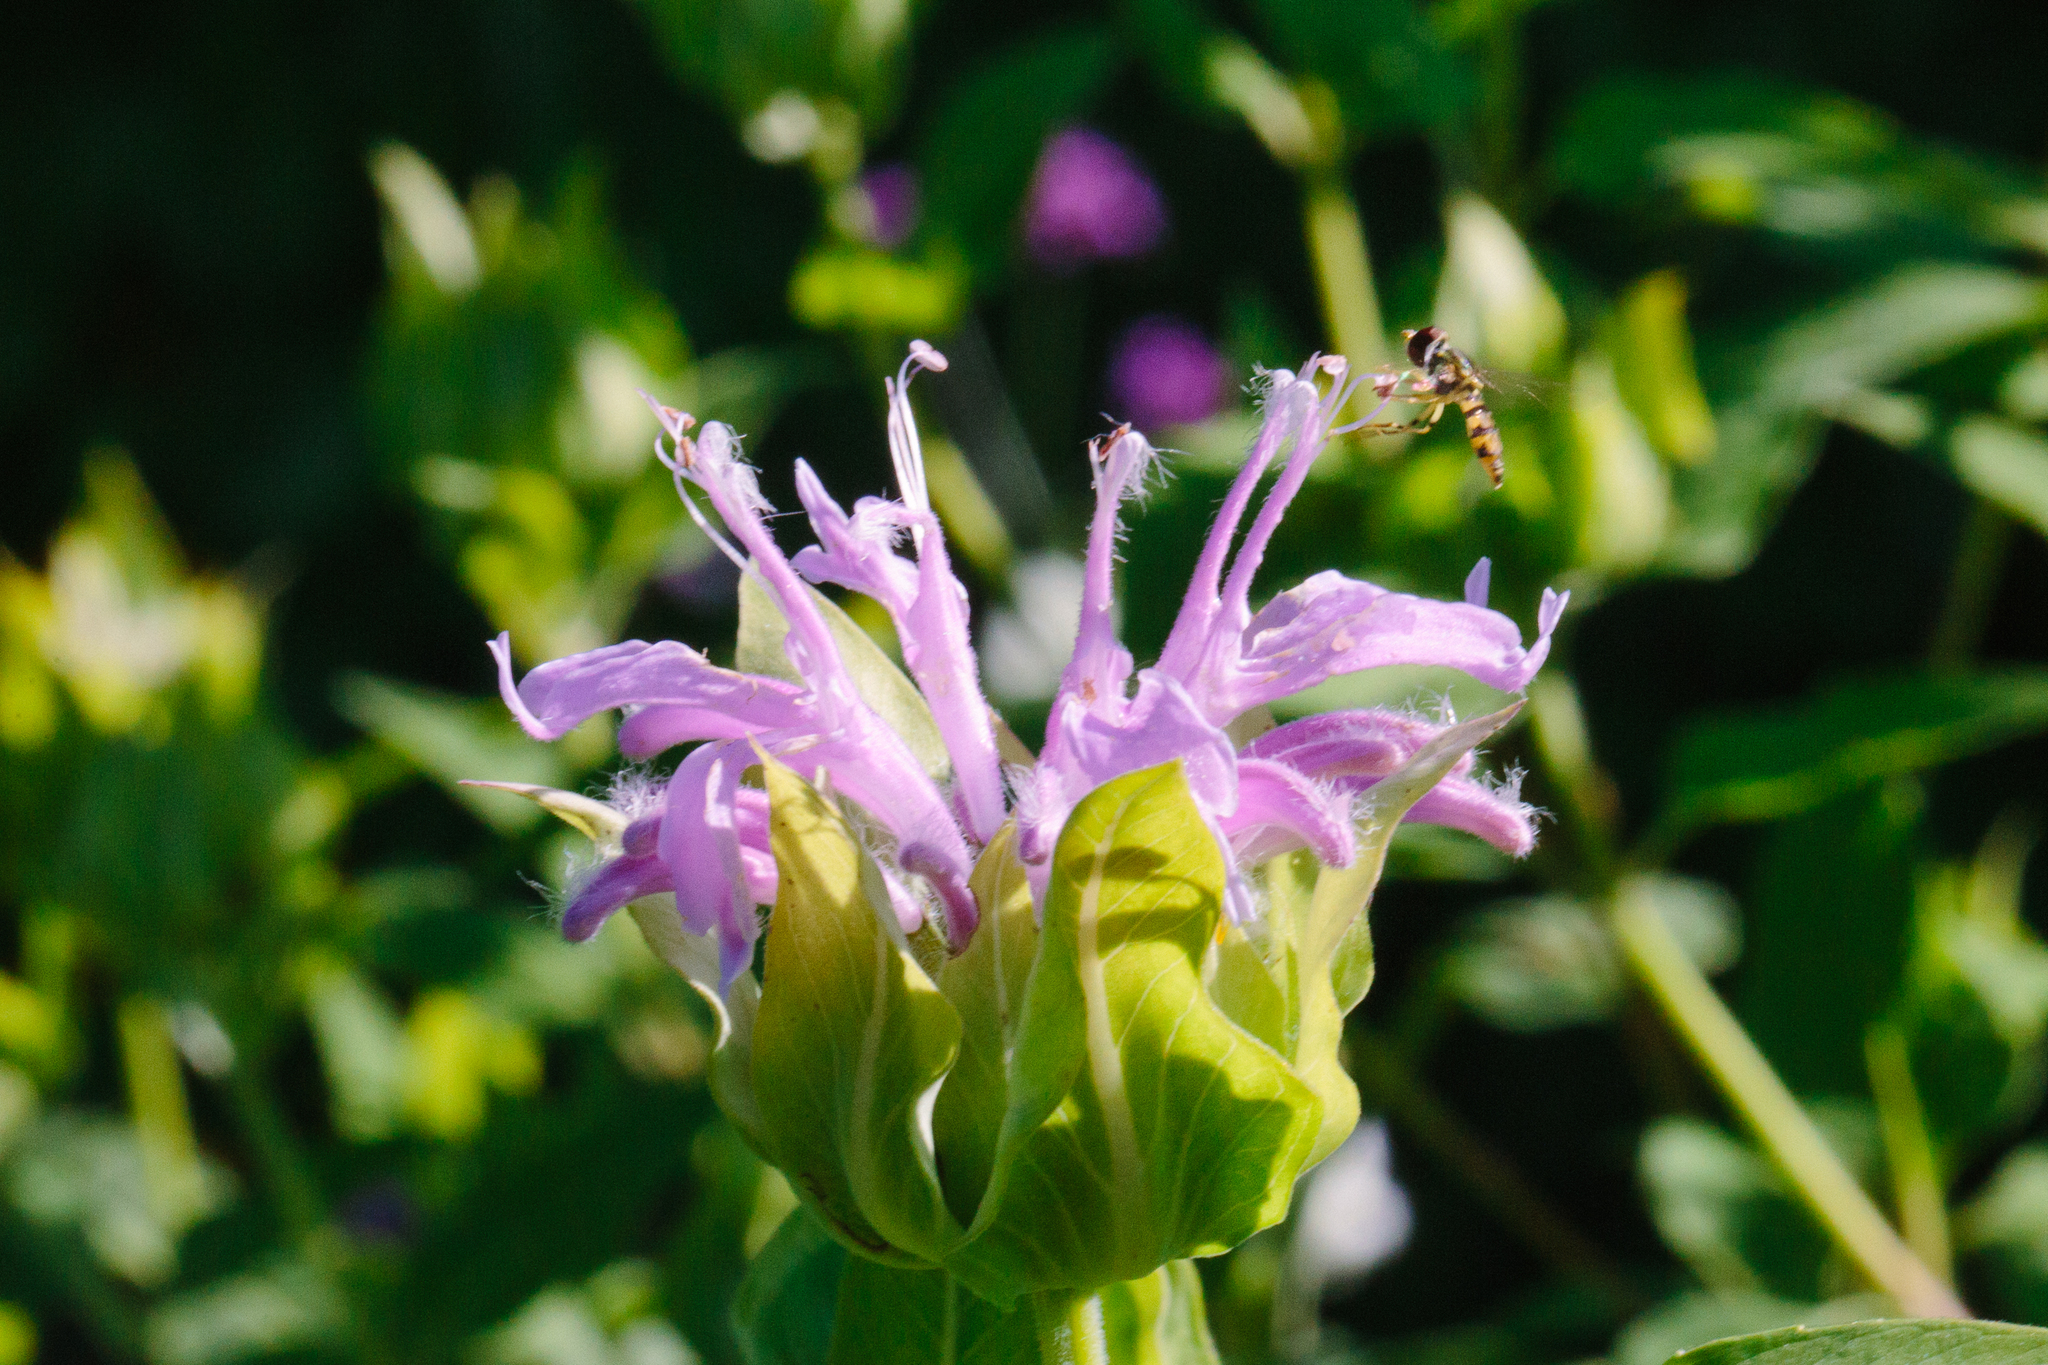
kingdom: Animalia
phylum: Arthropoda
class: Insecta
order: Diptera
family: Syrphidae
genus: Toxomerus
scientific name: Toxomerus geminatus
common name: Eastern calligrapher
